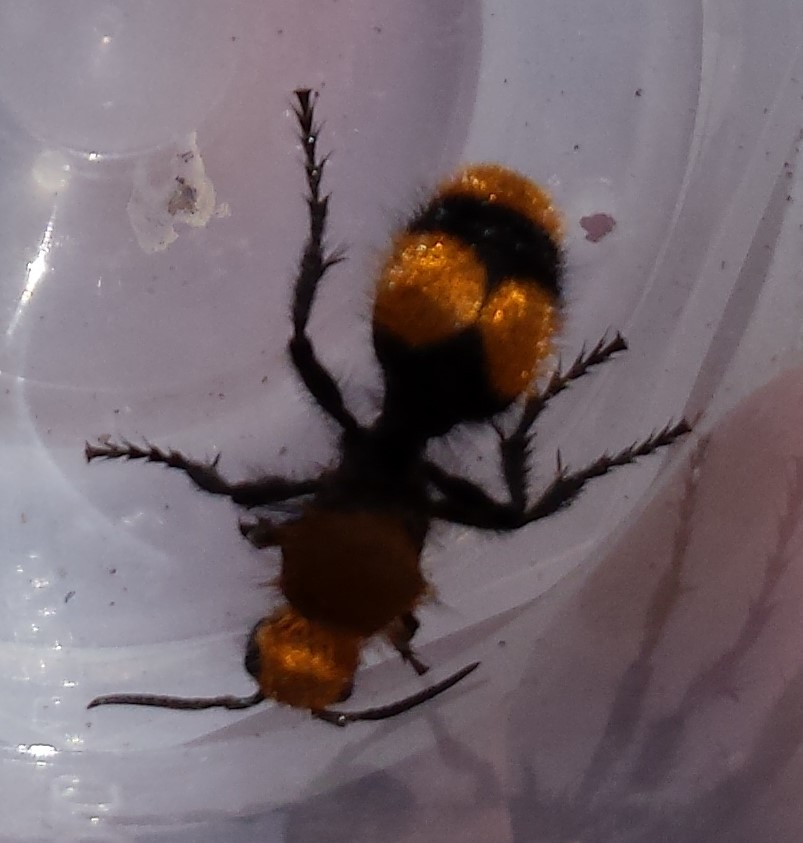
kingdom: Animalia
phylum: Arthropoda
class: Insecta
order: Hymenoptera
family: Mutillidae
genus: Dasymutilla
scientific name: Dasymutilla occidentalis
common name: Common eastern velvet ant
